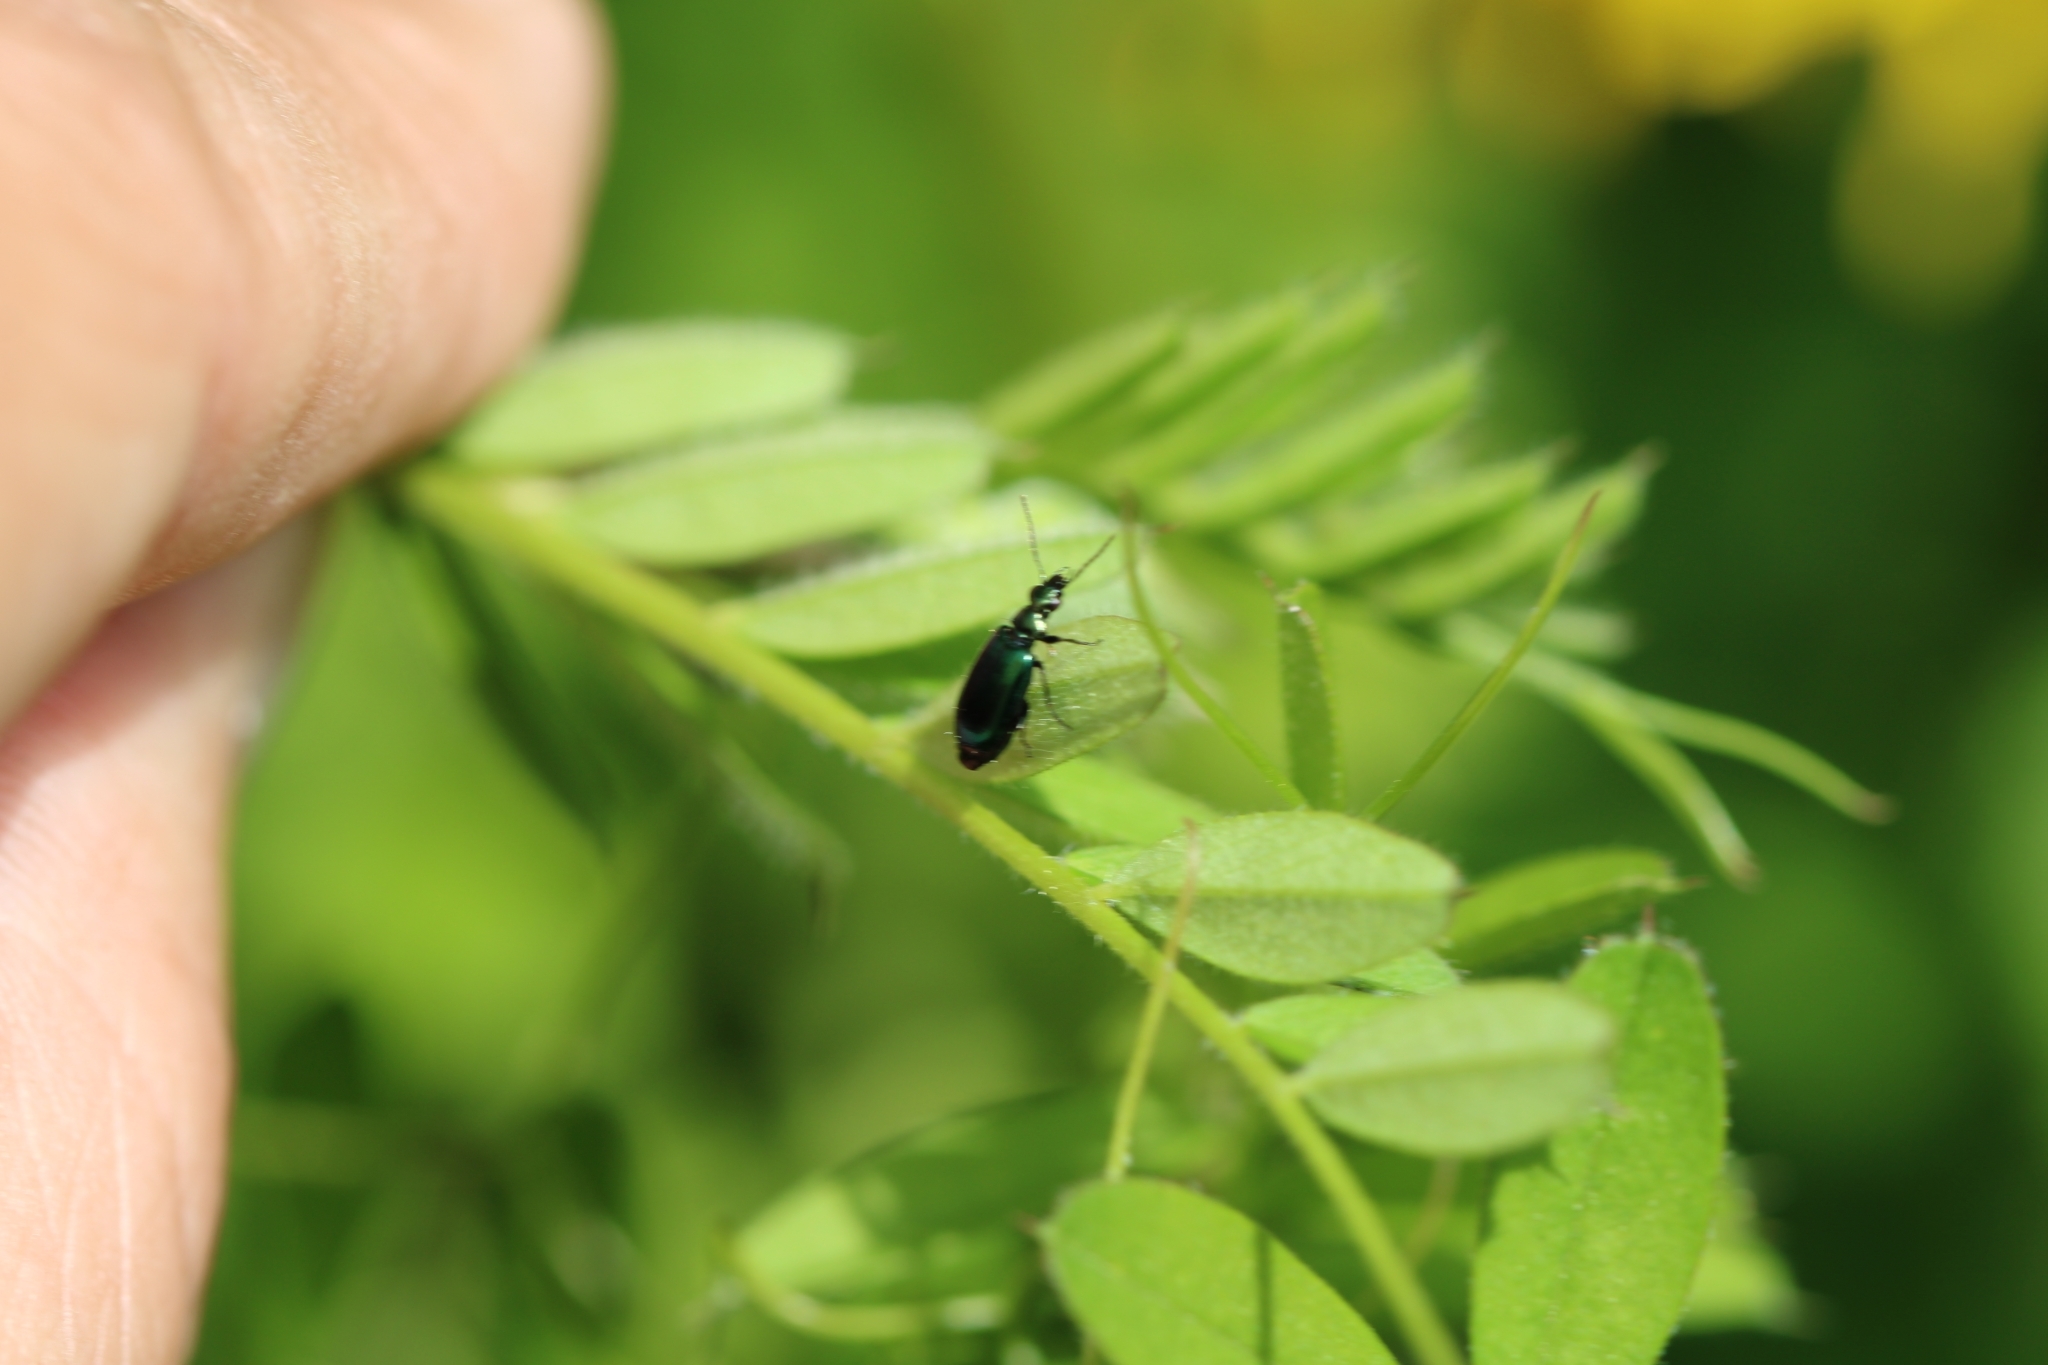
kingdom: Animalia
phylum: Arthropoda
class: Insecta
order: Coleoptera
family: Carabidae
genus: Lebia
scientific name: Lebia viridis
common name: Flower lebia beetle
